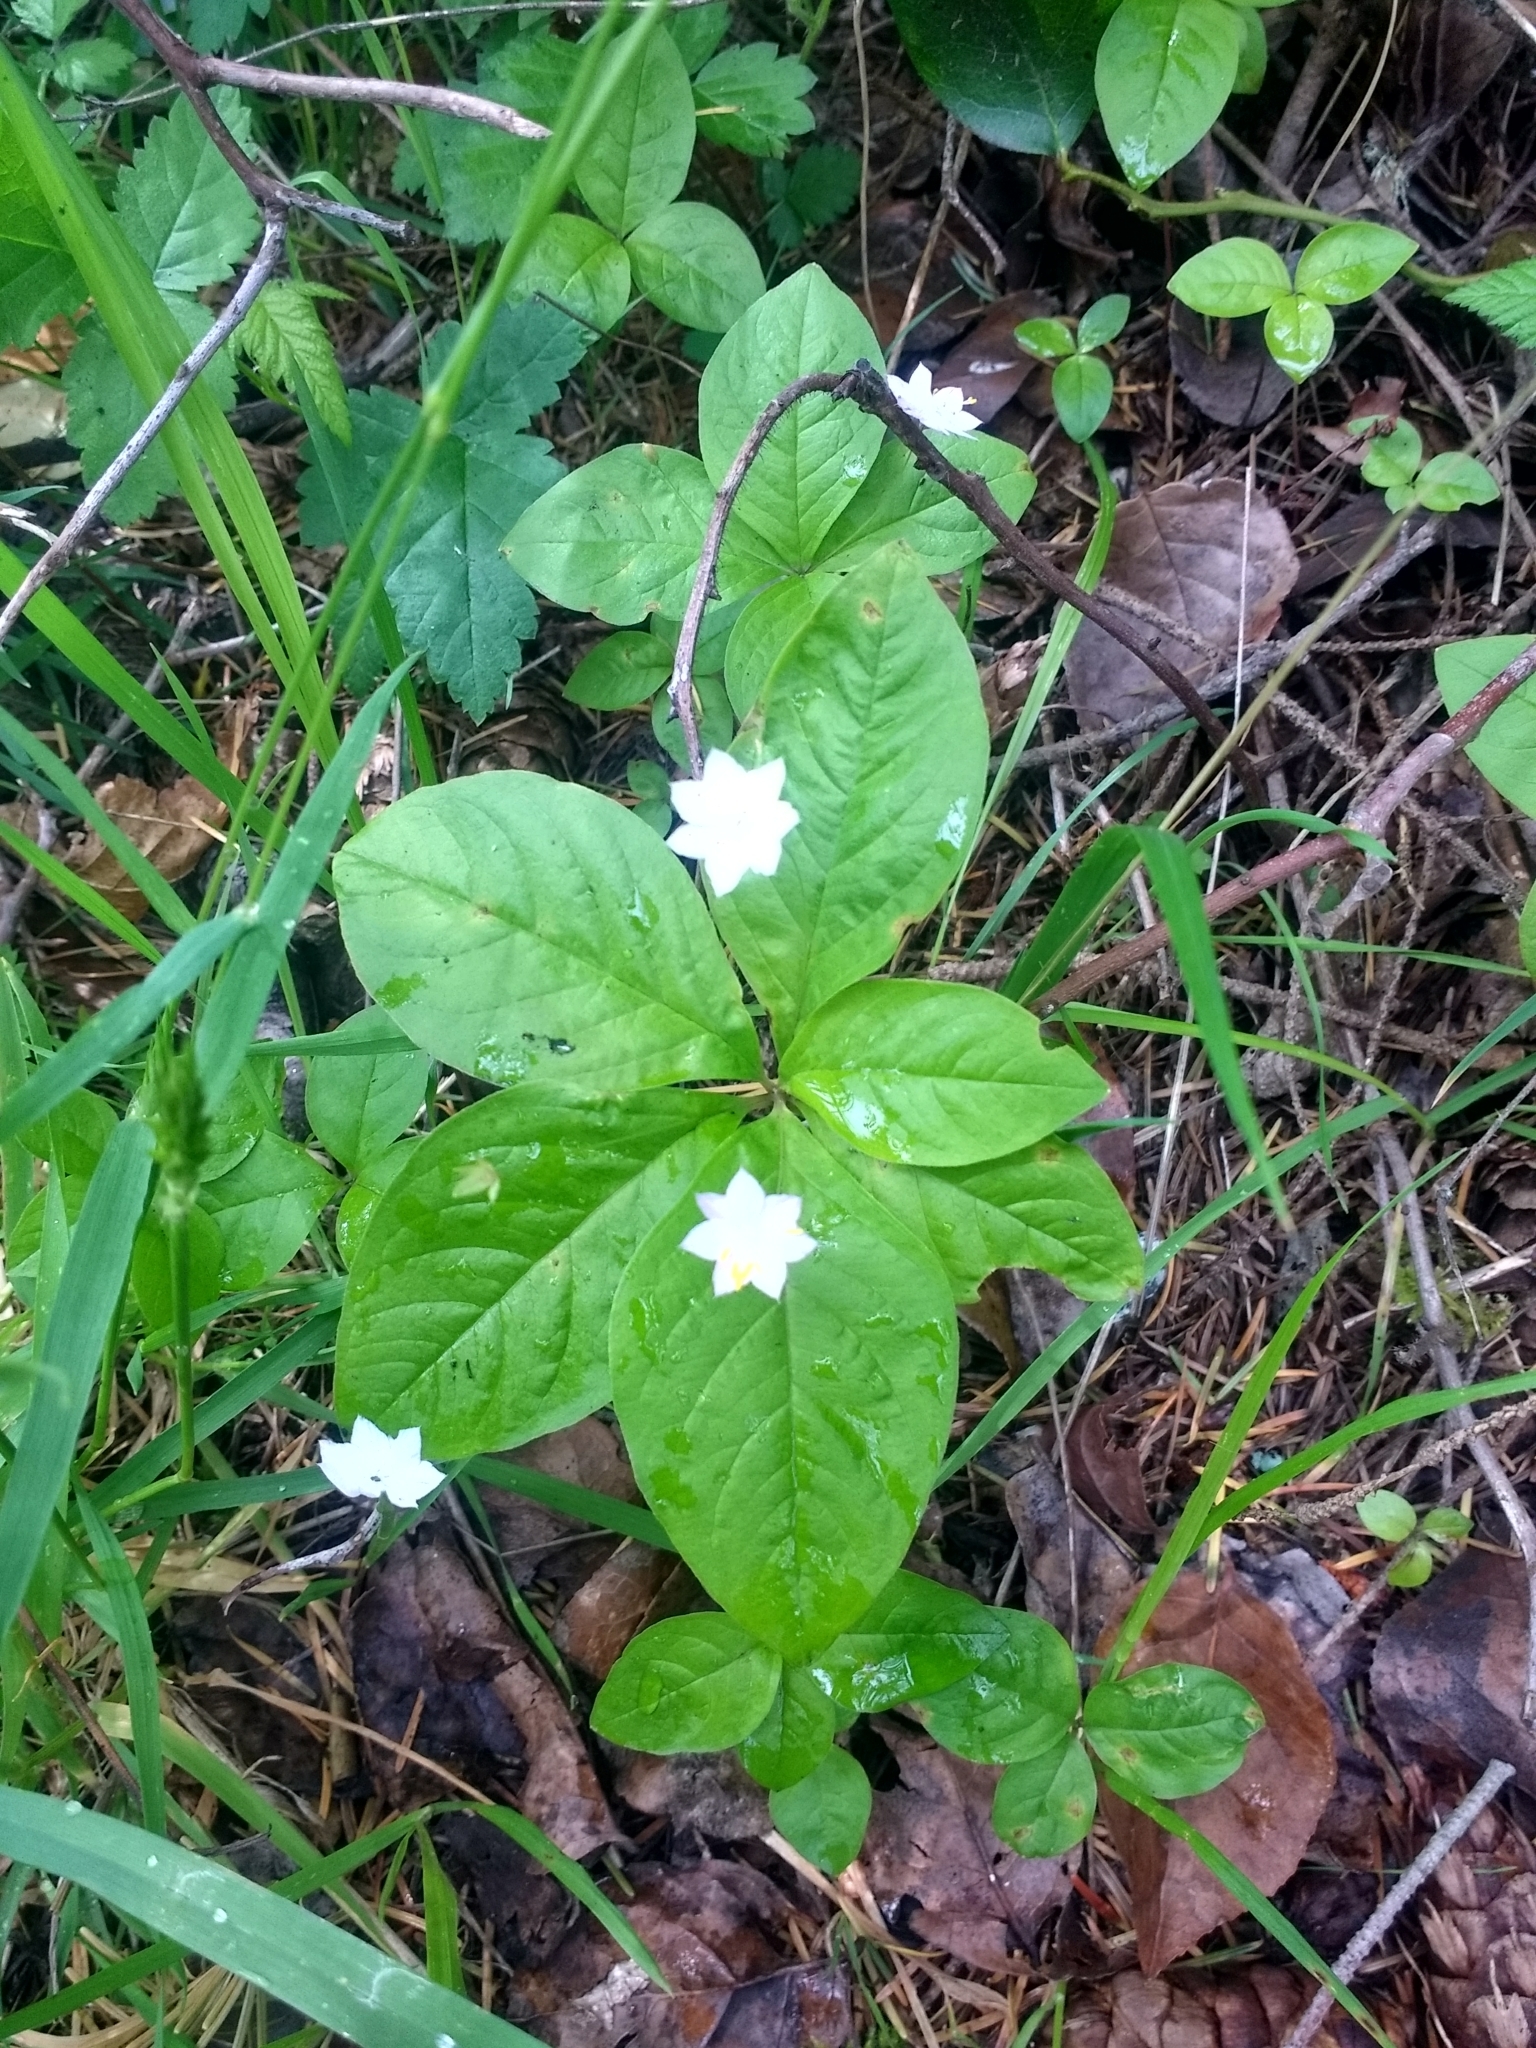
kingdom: Plantae
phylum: Tracheophyta
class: Magnoliopsida
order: Ericales
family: Primulaceae
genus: Lysimachia
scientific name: Lysimachia latifolia
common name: Pacific starflower
